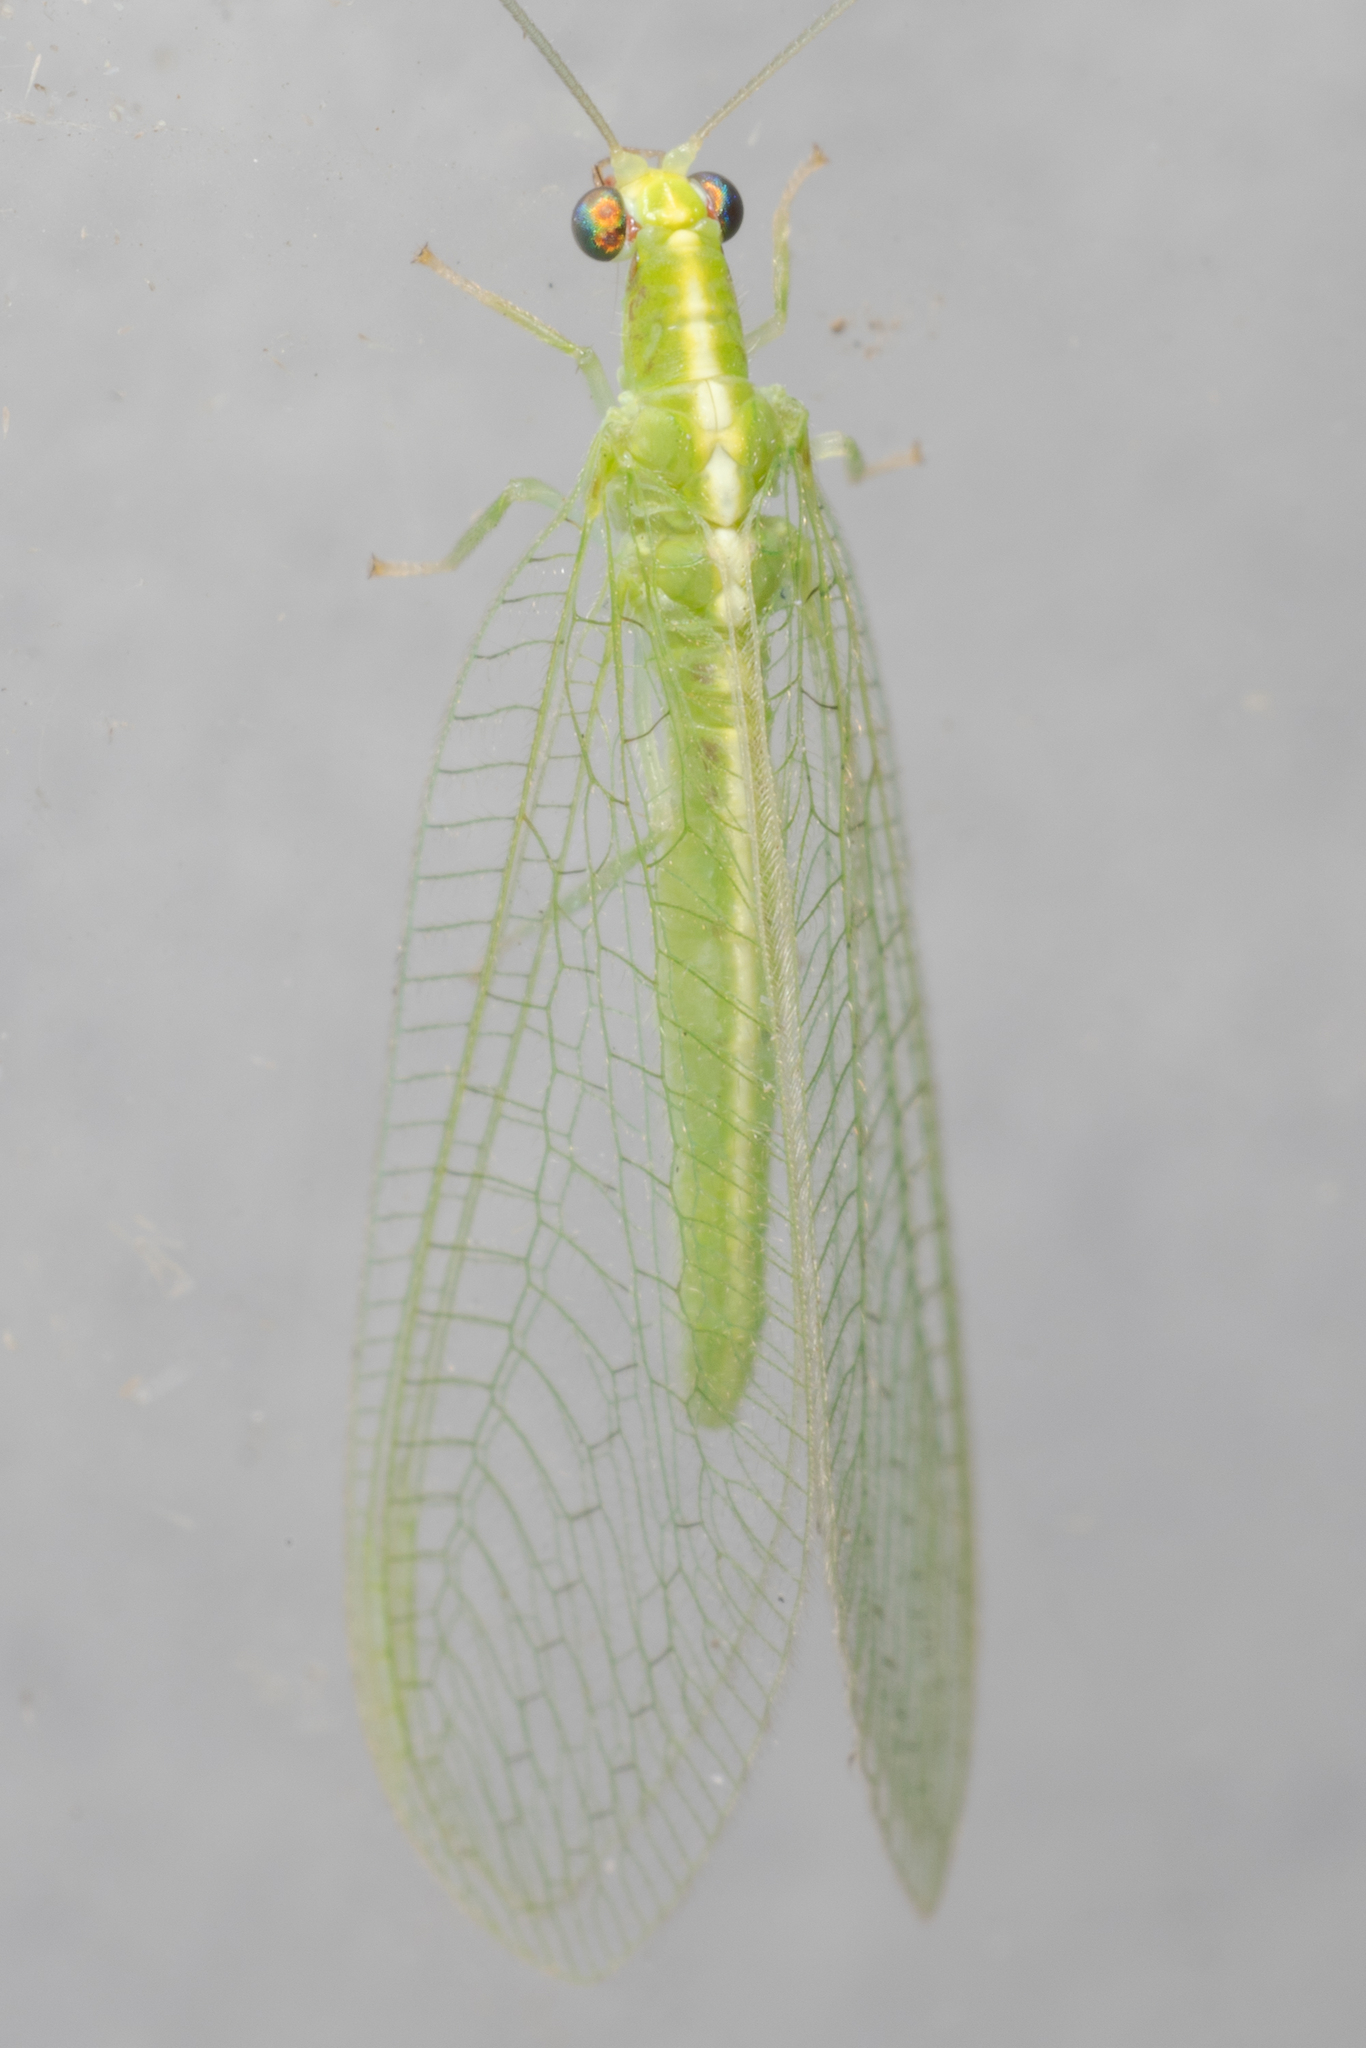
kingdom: Animalia
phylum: Arthropoda
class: Insecta
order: Neuroptera
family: Chrysopidae
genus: Chrysoperla
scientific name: Chrysoperla rufilabris
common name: Red-lipped green lacewing
